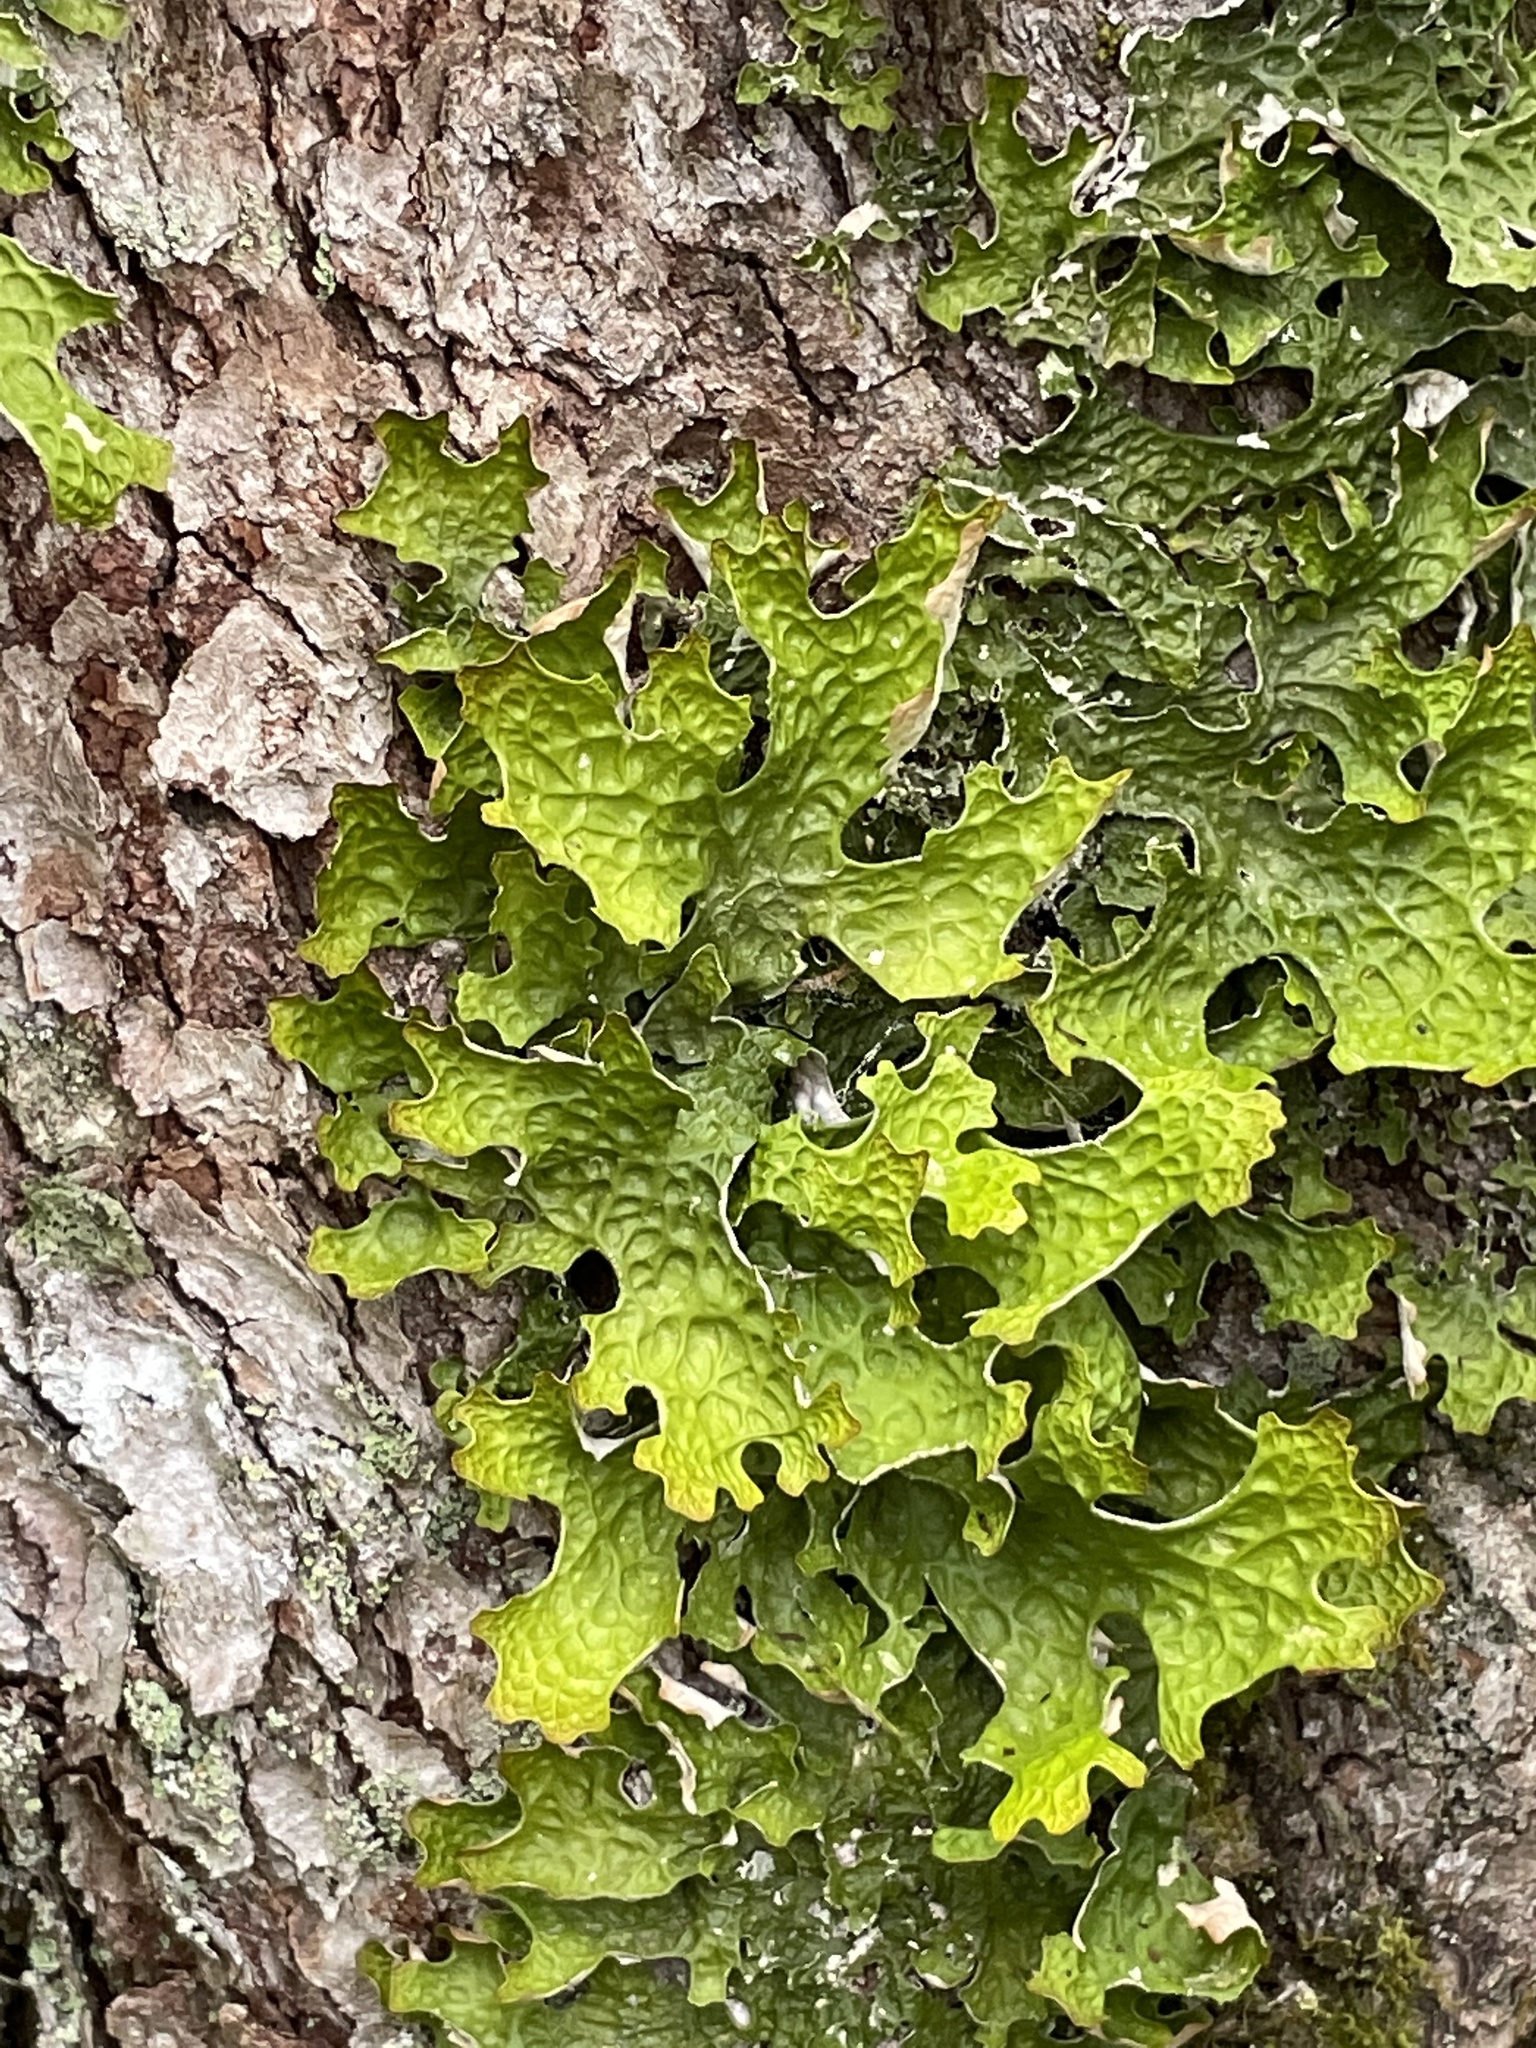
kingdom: Fungi
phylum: Ascomycota
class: Lecanoromycetes
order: Peltigerales
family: Lobariaceae
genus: Lobaria
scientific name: Lobaria pulmonaria
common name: Lungwort
